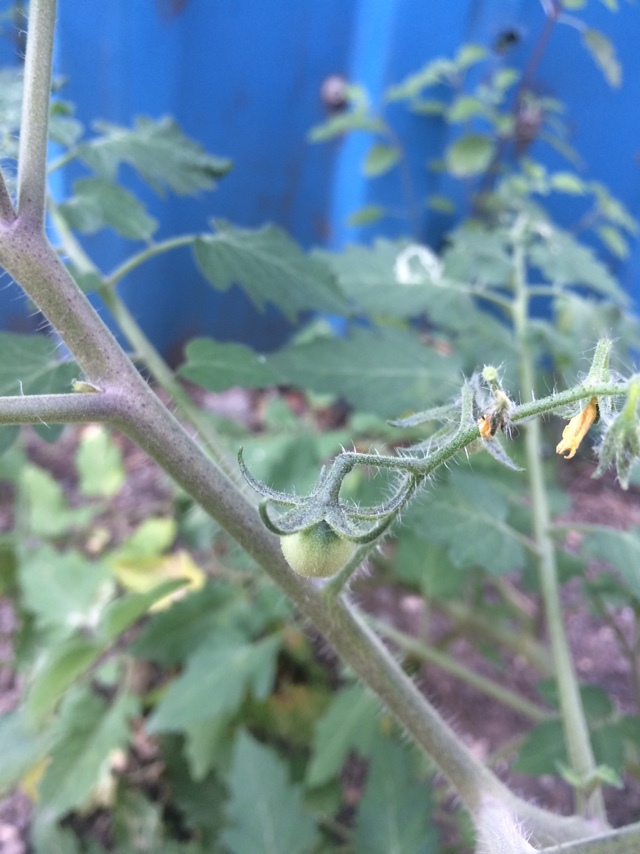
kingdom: Plantae
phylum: Tracheophyta
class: Magnoliopsida
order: Solanales
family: Solanaceae
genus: Solanum
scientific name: Solanum lycopersicum
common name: Garden tomato
